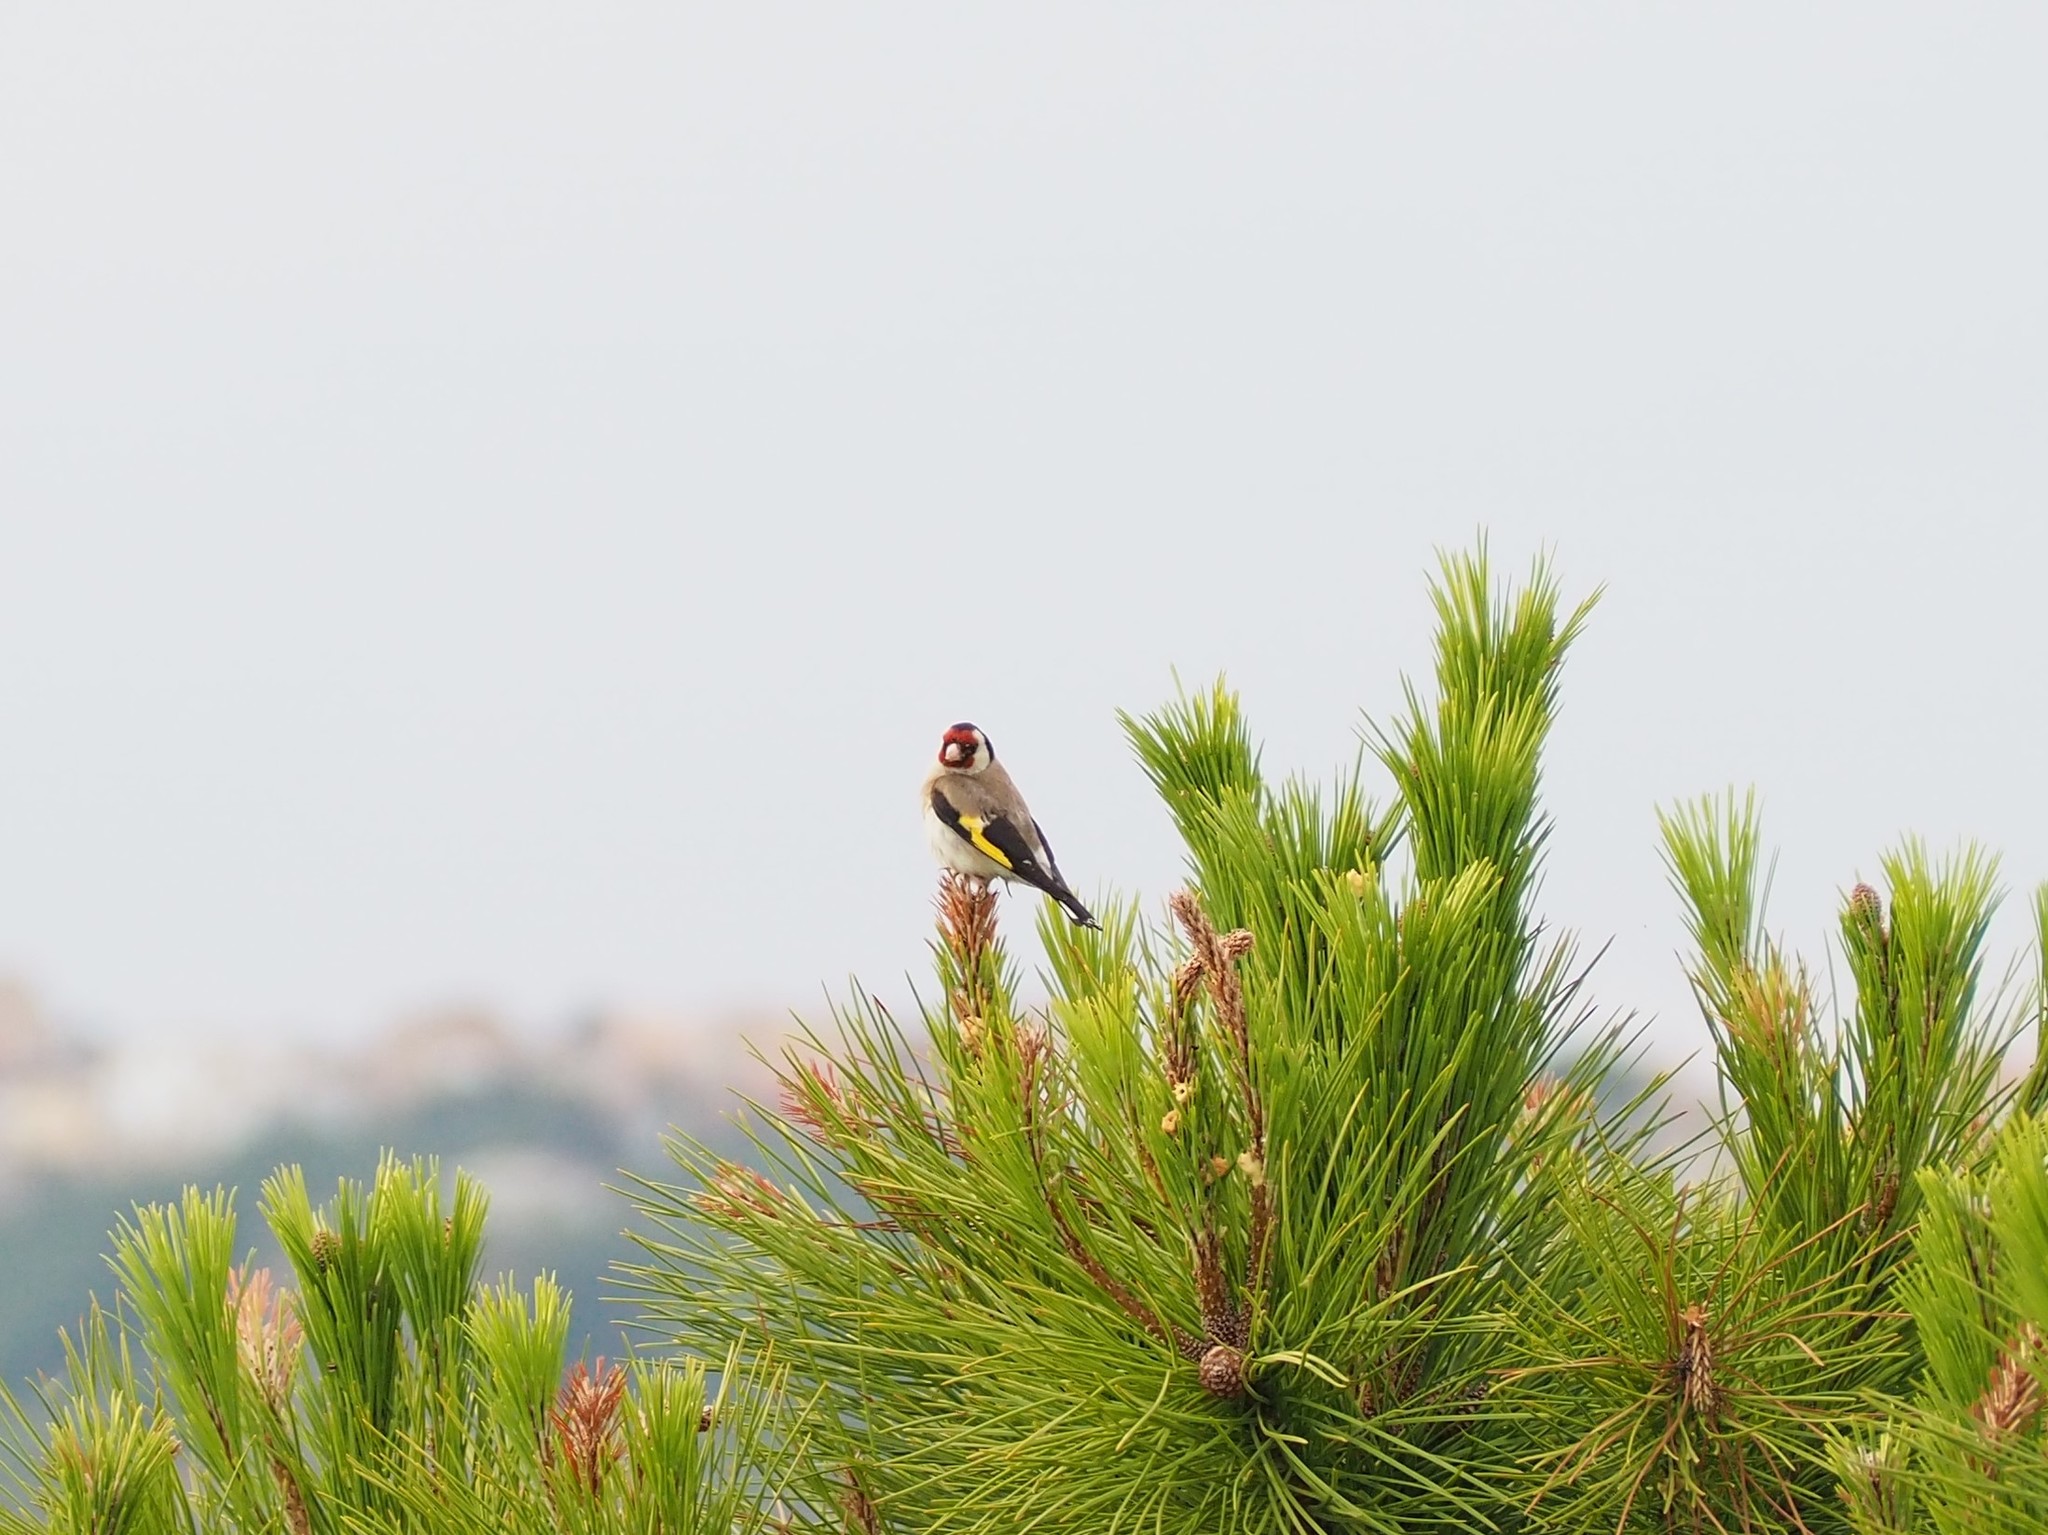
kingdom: Animalia
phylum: Chordata
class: Aves
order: Passeriformes
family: Fringillidae
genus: Carduelis
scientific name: Carduelis carduelis
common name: European goldfinch
